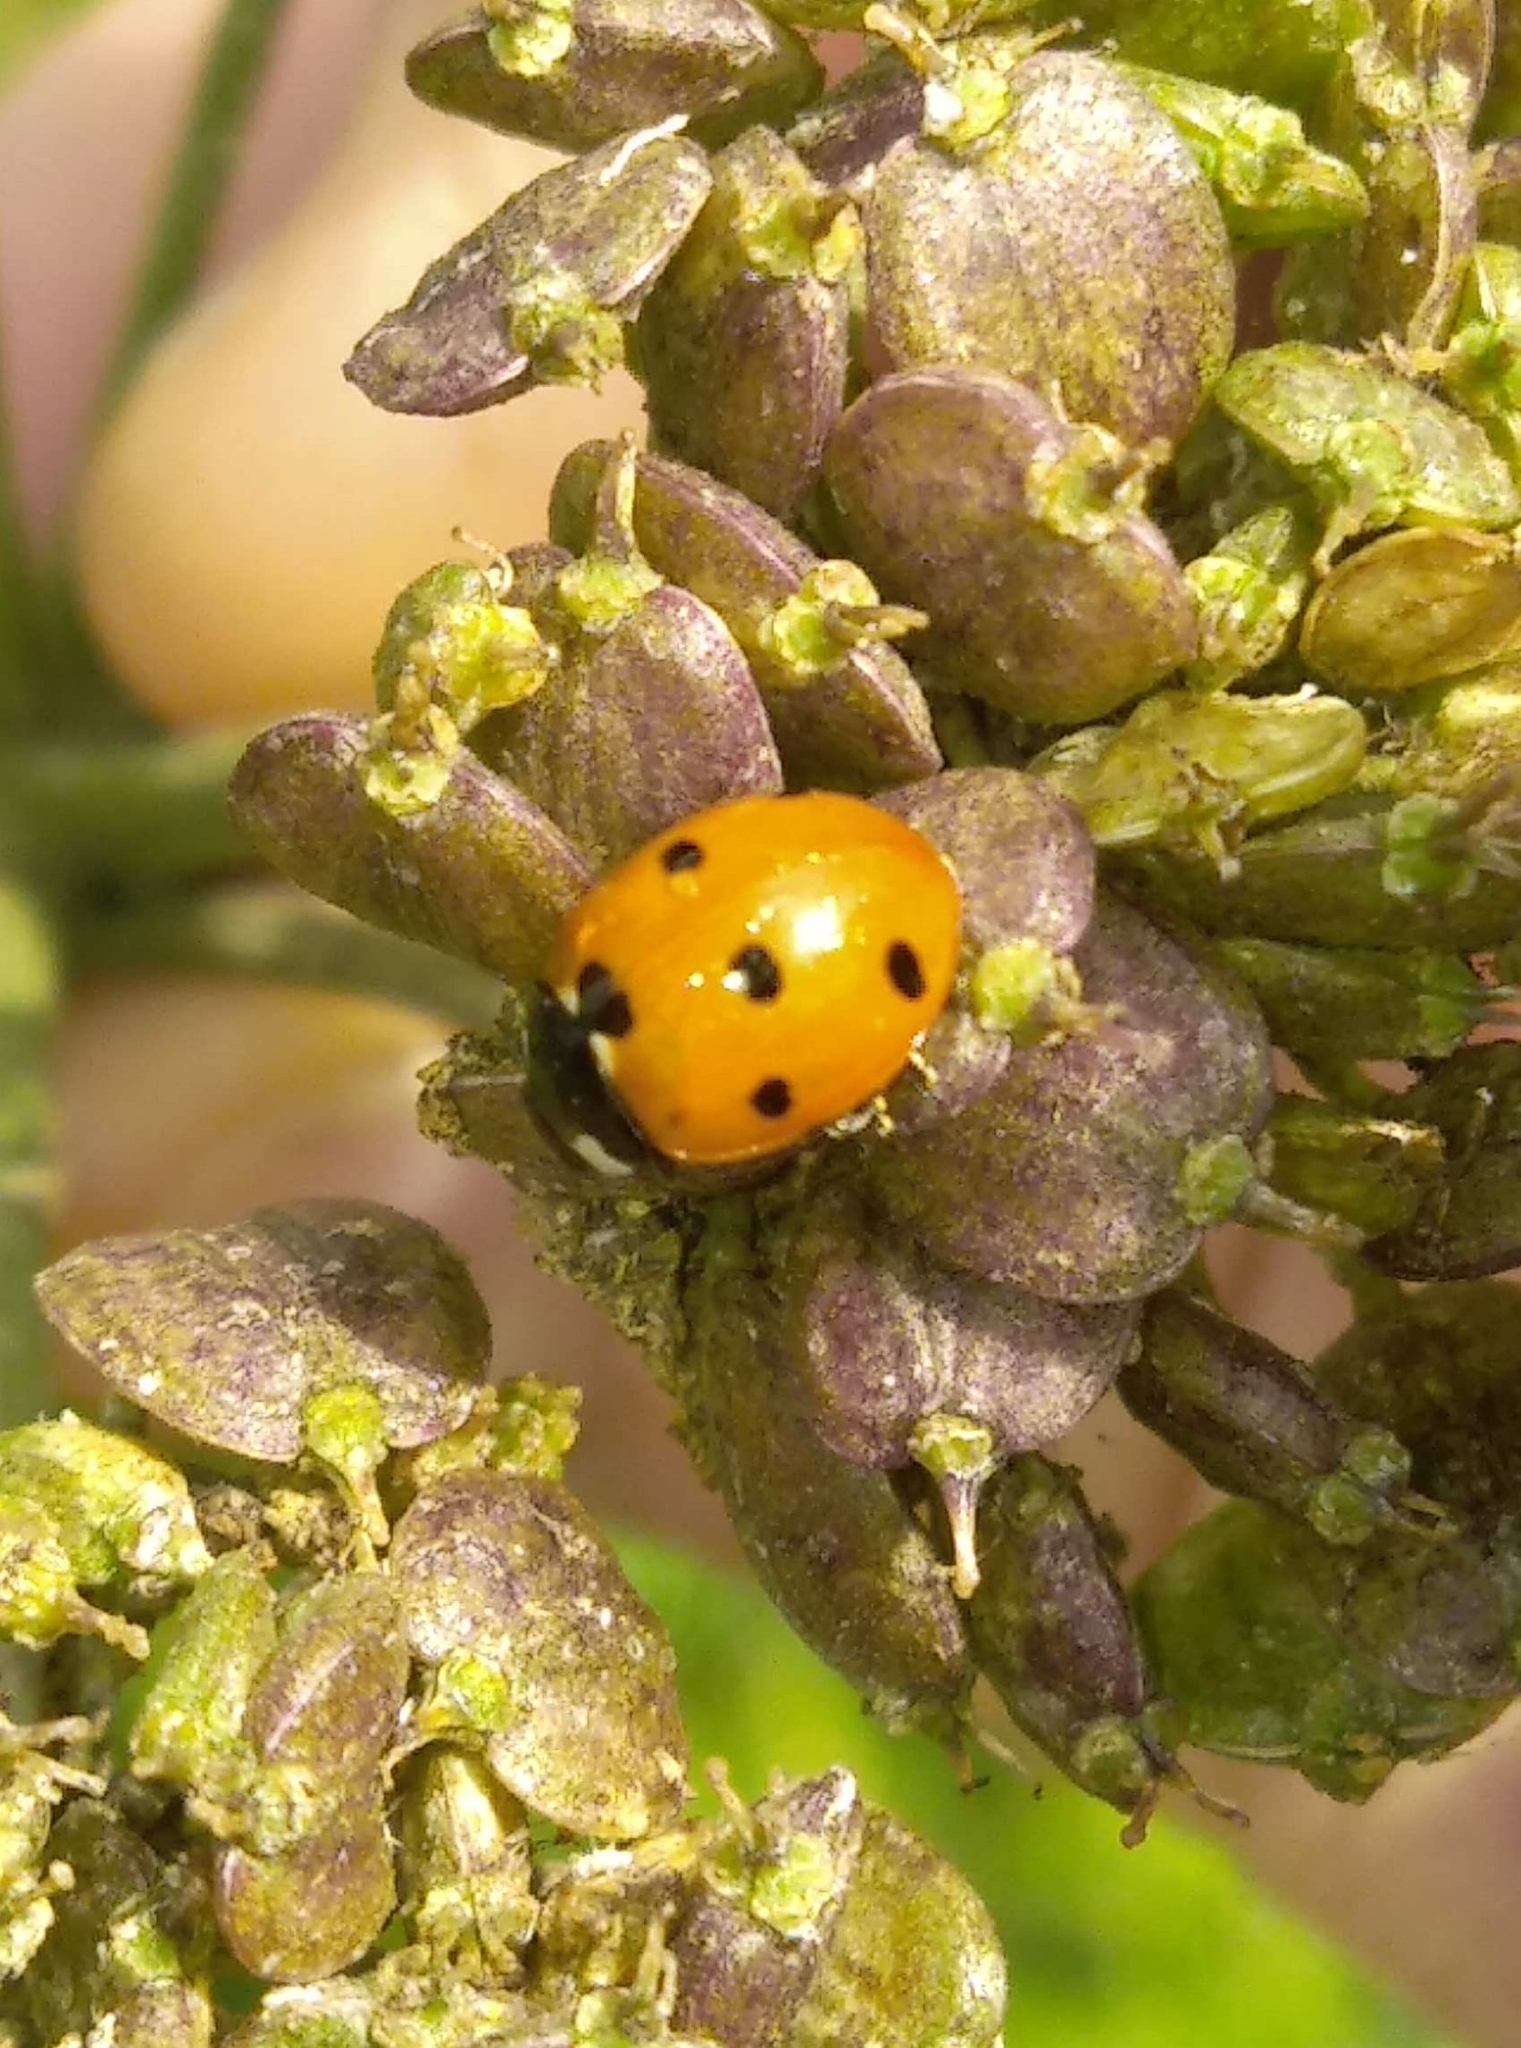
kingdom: Animalia
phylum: Arthropoda
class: Insecta
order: Coleoptera
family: Coccinellidae
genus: Coccinella
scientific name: Coccinella septempunctata
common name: Sevenspotted lady beetle
